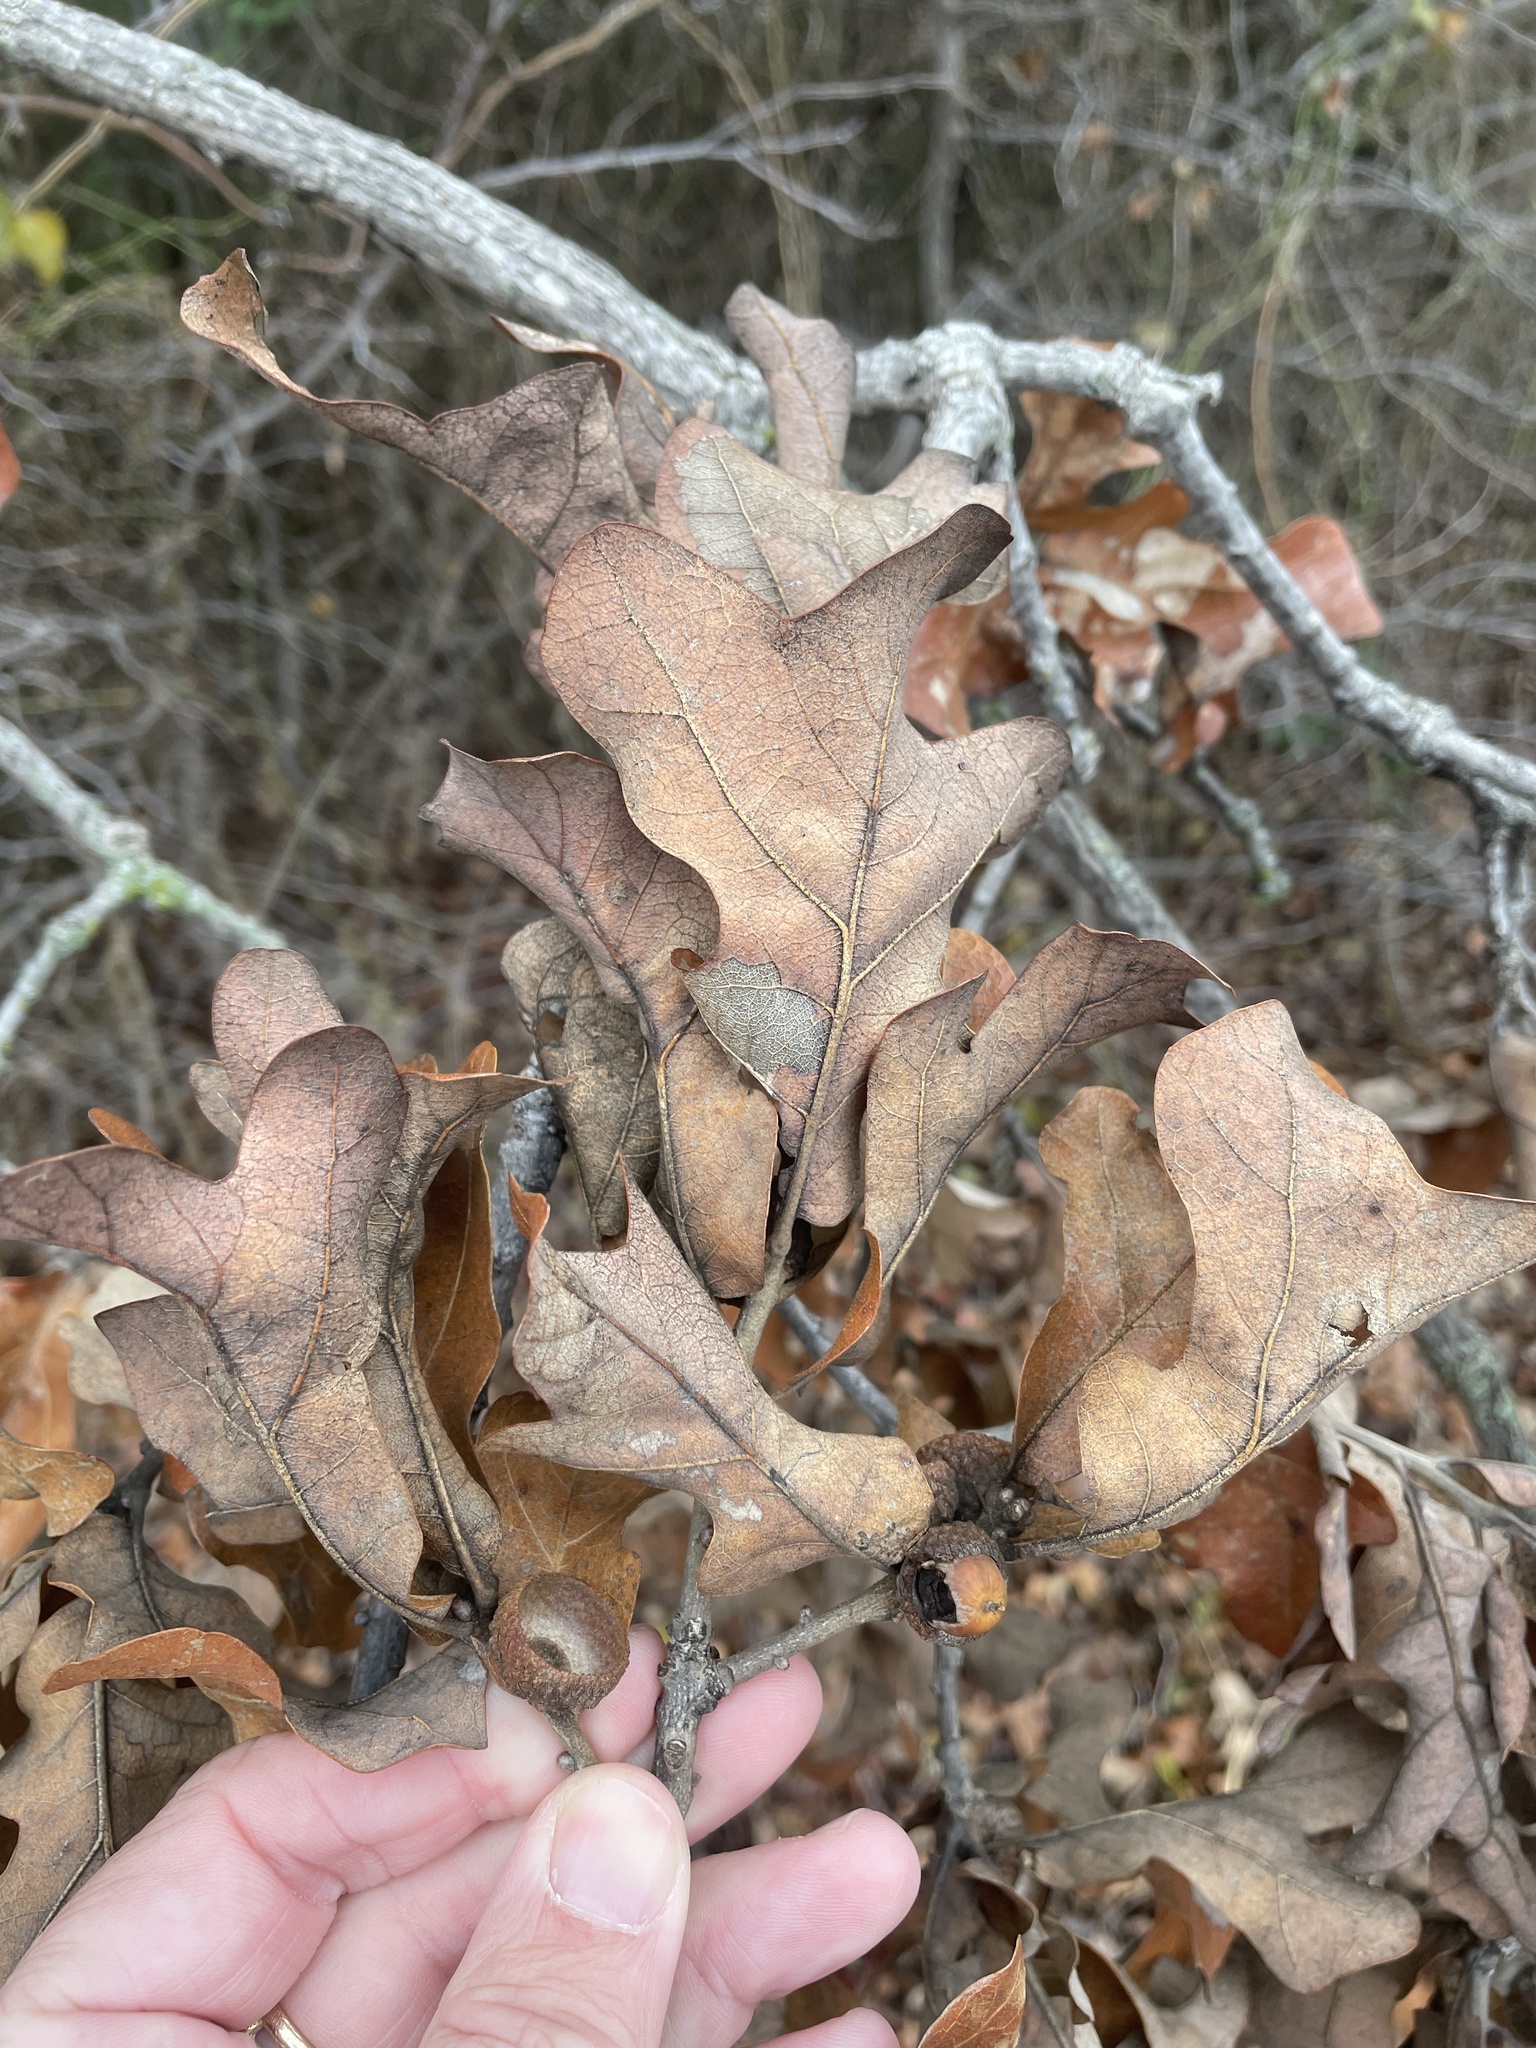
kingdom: Plantae
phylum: Tracheophyta
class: Magnoliopsida
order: Fagales
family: Fagaceae
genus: Quercus
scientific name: Quercus stellata
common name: Post oak
